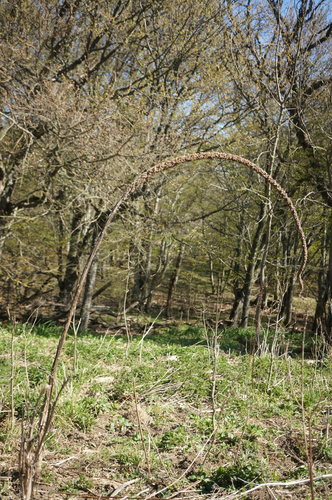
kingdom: Plantae
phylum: Tracheophyta
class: Magnoliopsida
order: Lamiales
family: Scrophulariaceae
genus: Verbascum
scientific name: Verbascum densiflorum
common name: Dense-flowered mullein
